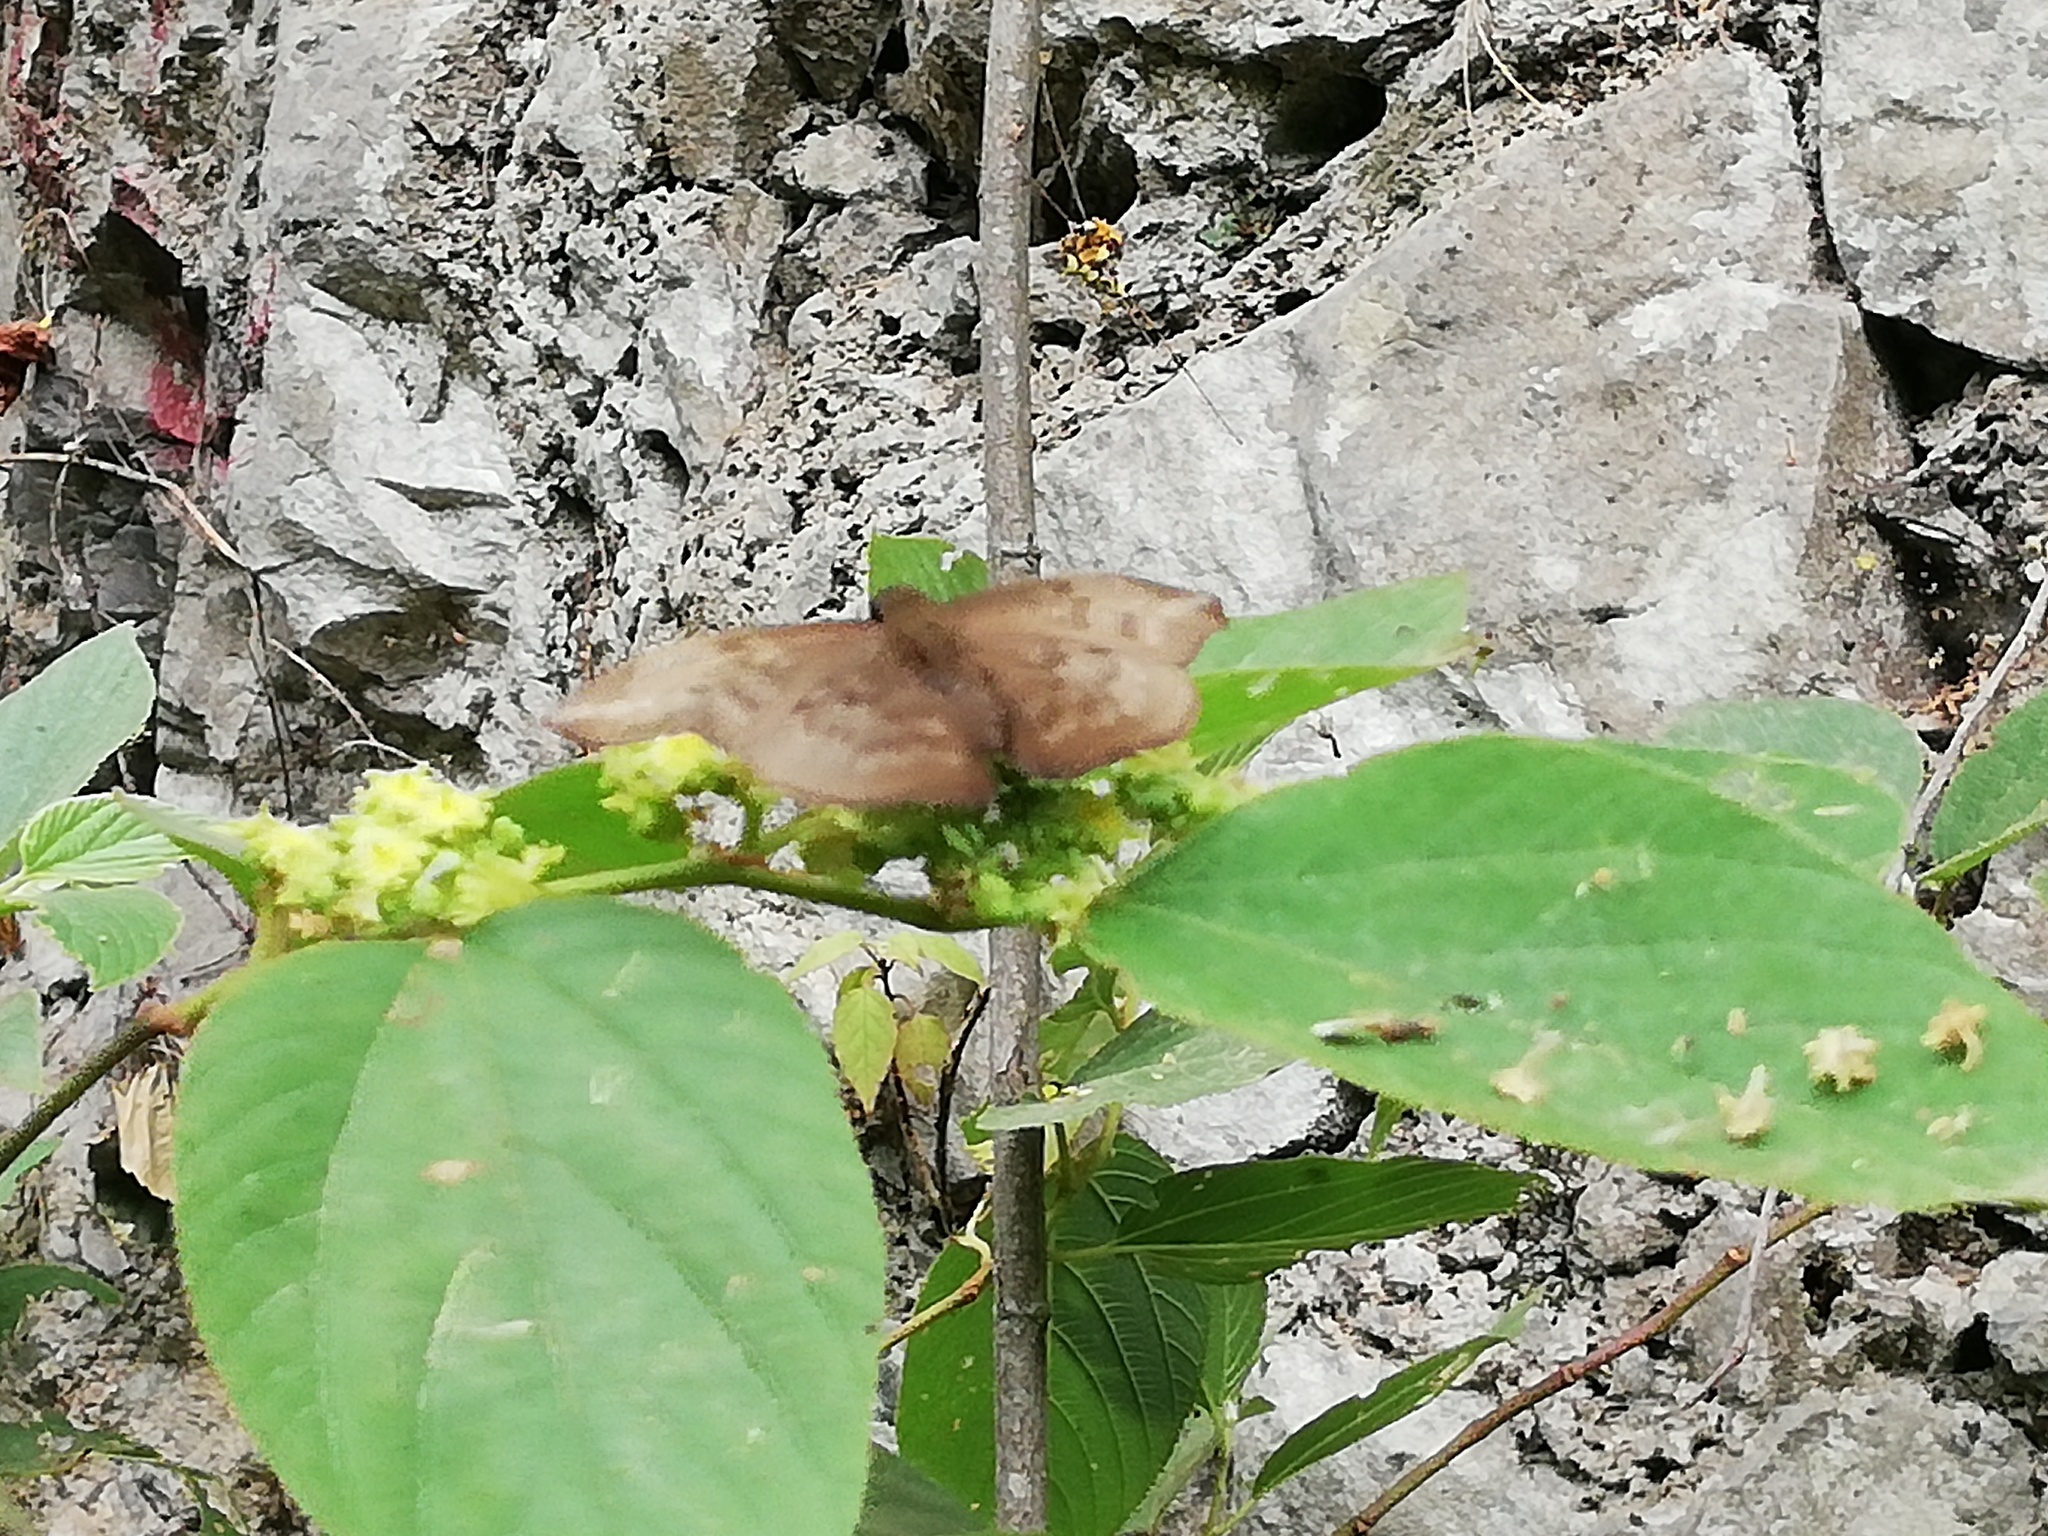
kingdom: Animalia
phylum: Arthropoda
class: Insecta
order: Lepidoptera
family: Hesperiidae
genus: Achlyodes
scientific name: Achlyodes pallida
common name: Pale sicklewing
